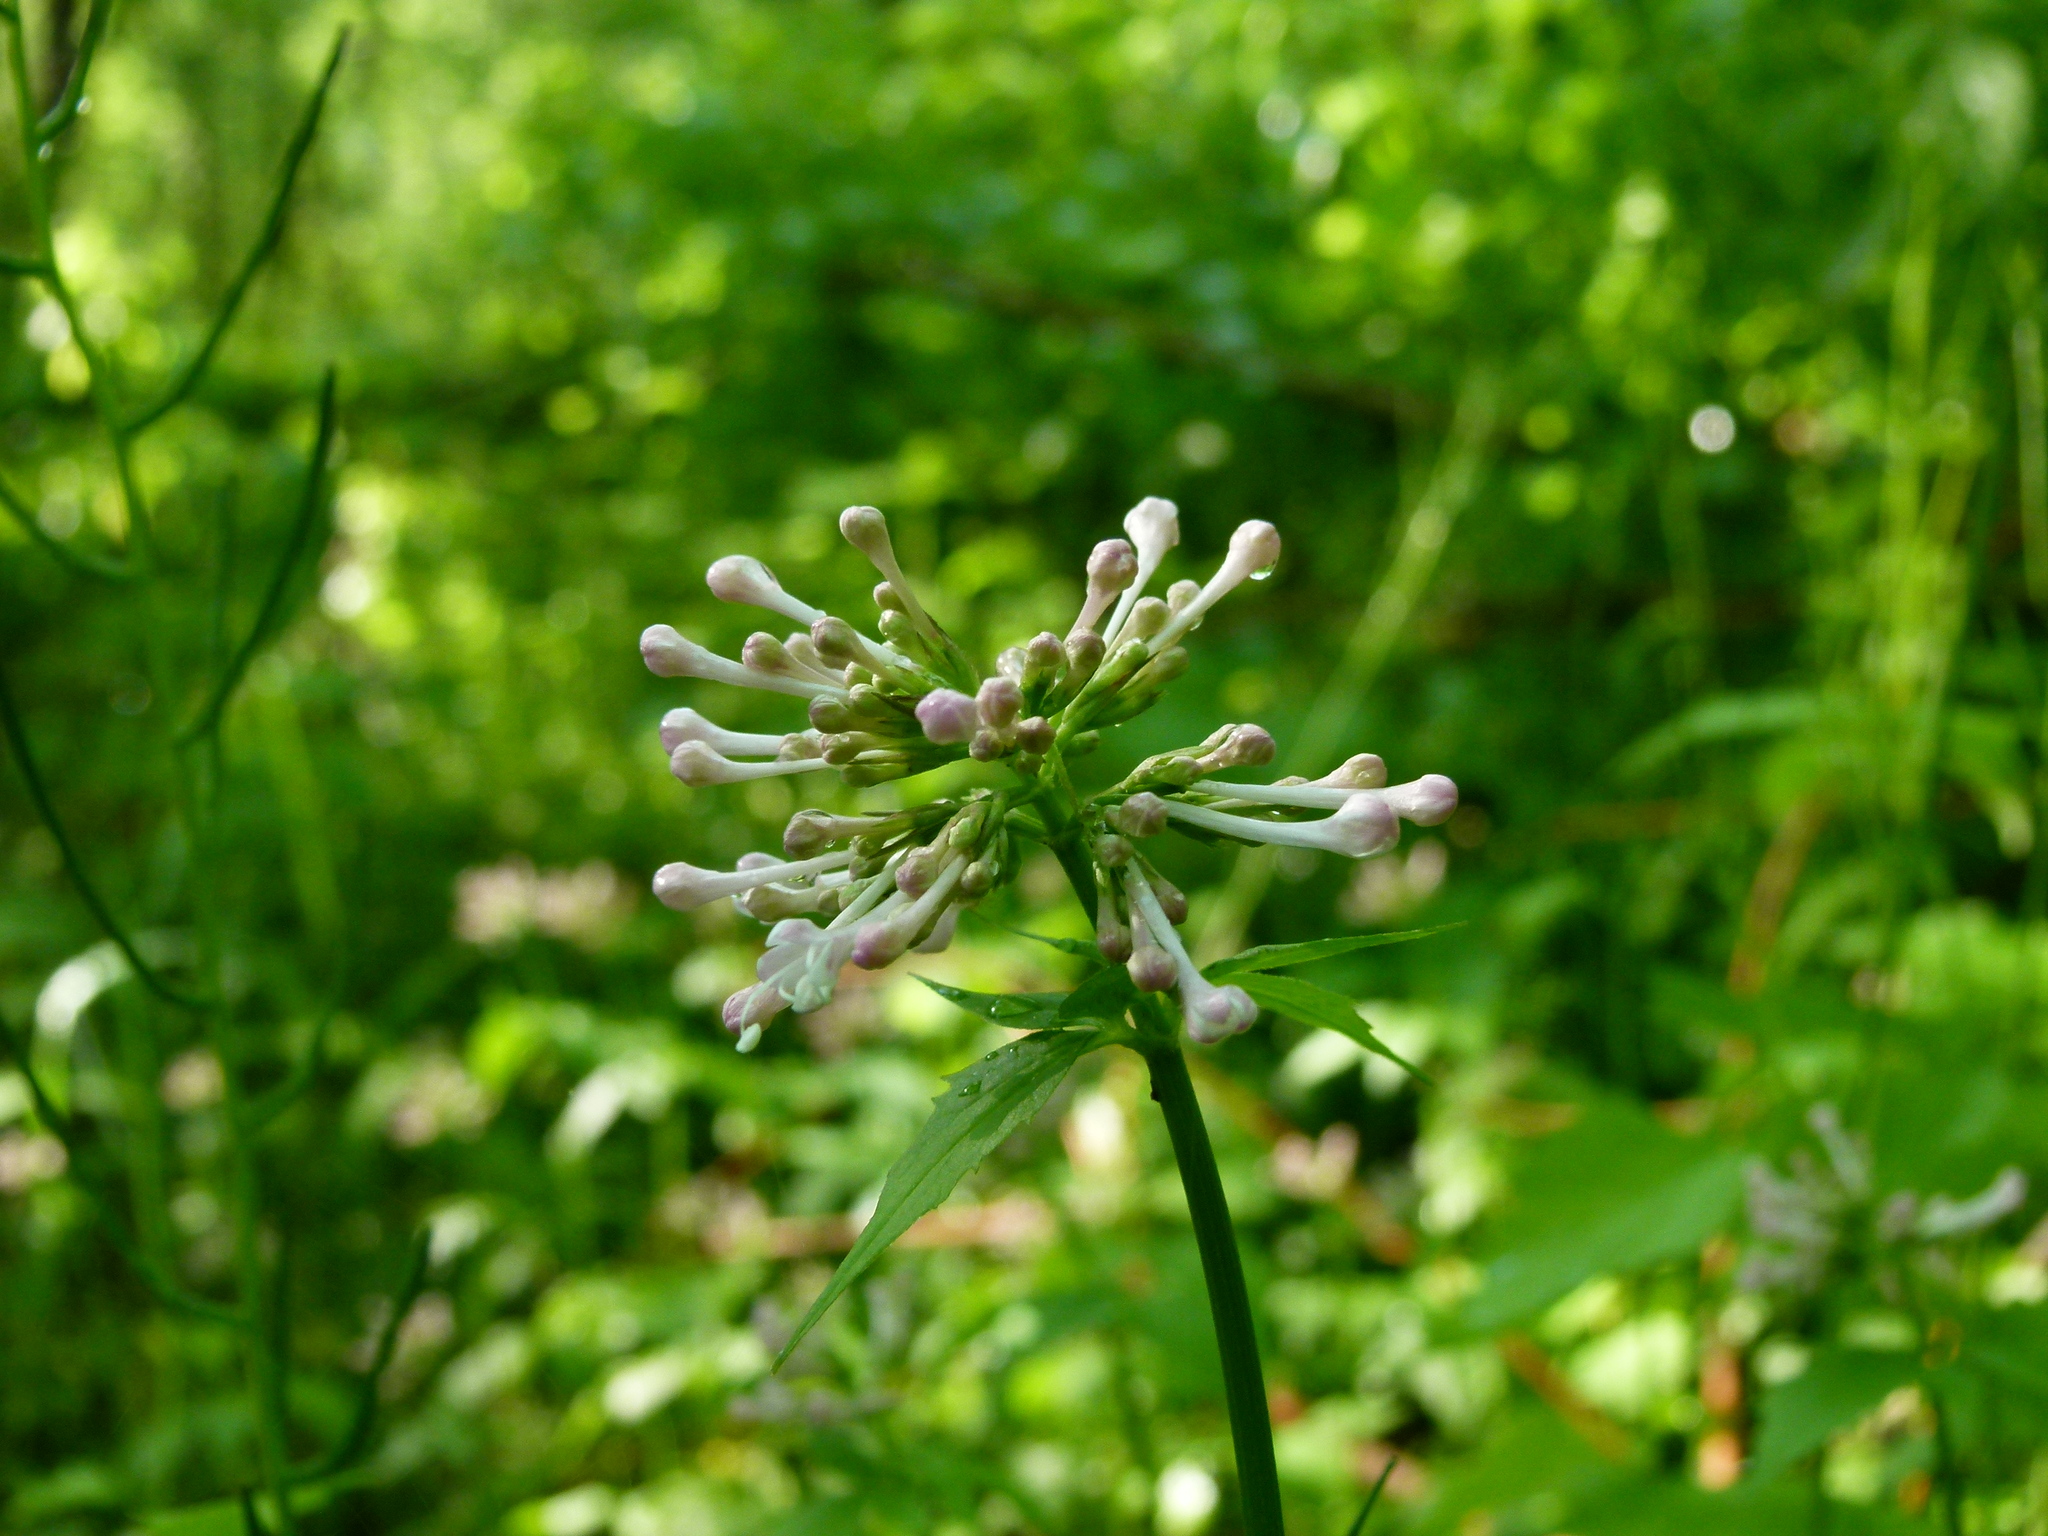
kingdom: Plantae
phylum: Tracheophyta
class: Magnoliopsida
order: Dipsacales
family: Caprifoliaceae
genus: Valeriana
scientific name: Valeriana pauciflora
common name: Long-tube valeriana
